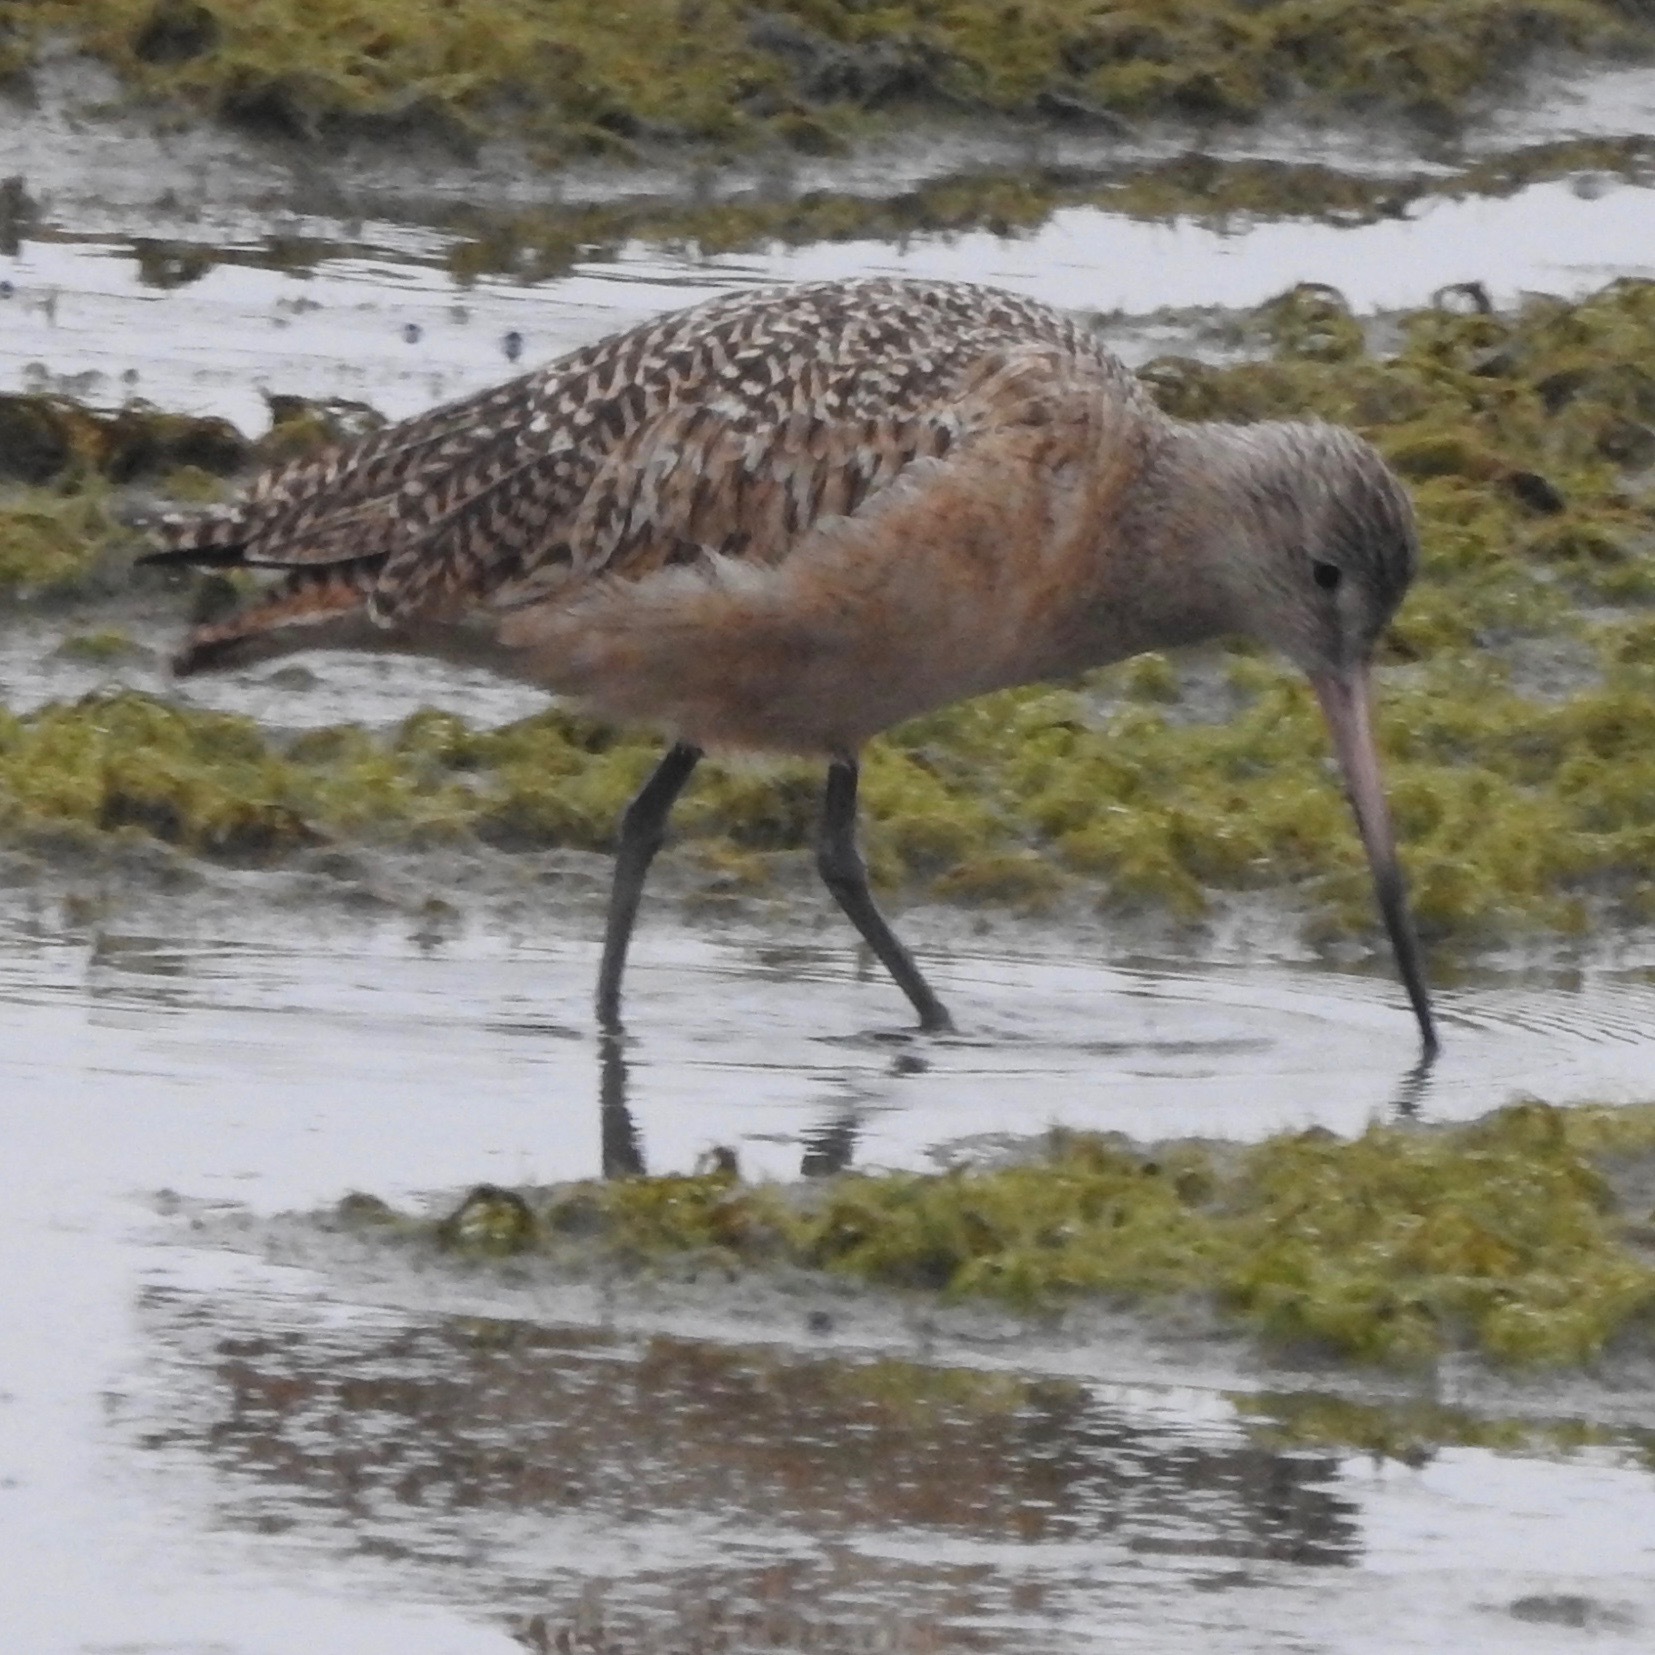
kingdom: Animalia
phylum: Chordata
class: Aves
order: Charadriiformes
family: Scolopacidae
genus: Limosa
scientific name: Limosa fedoa
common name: Marbled godwit
